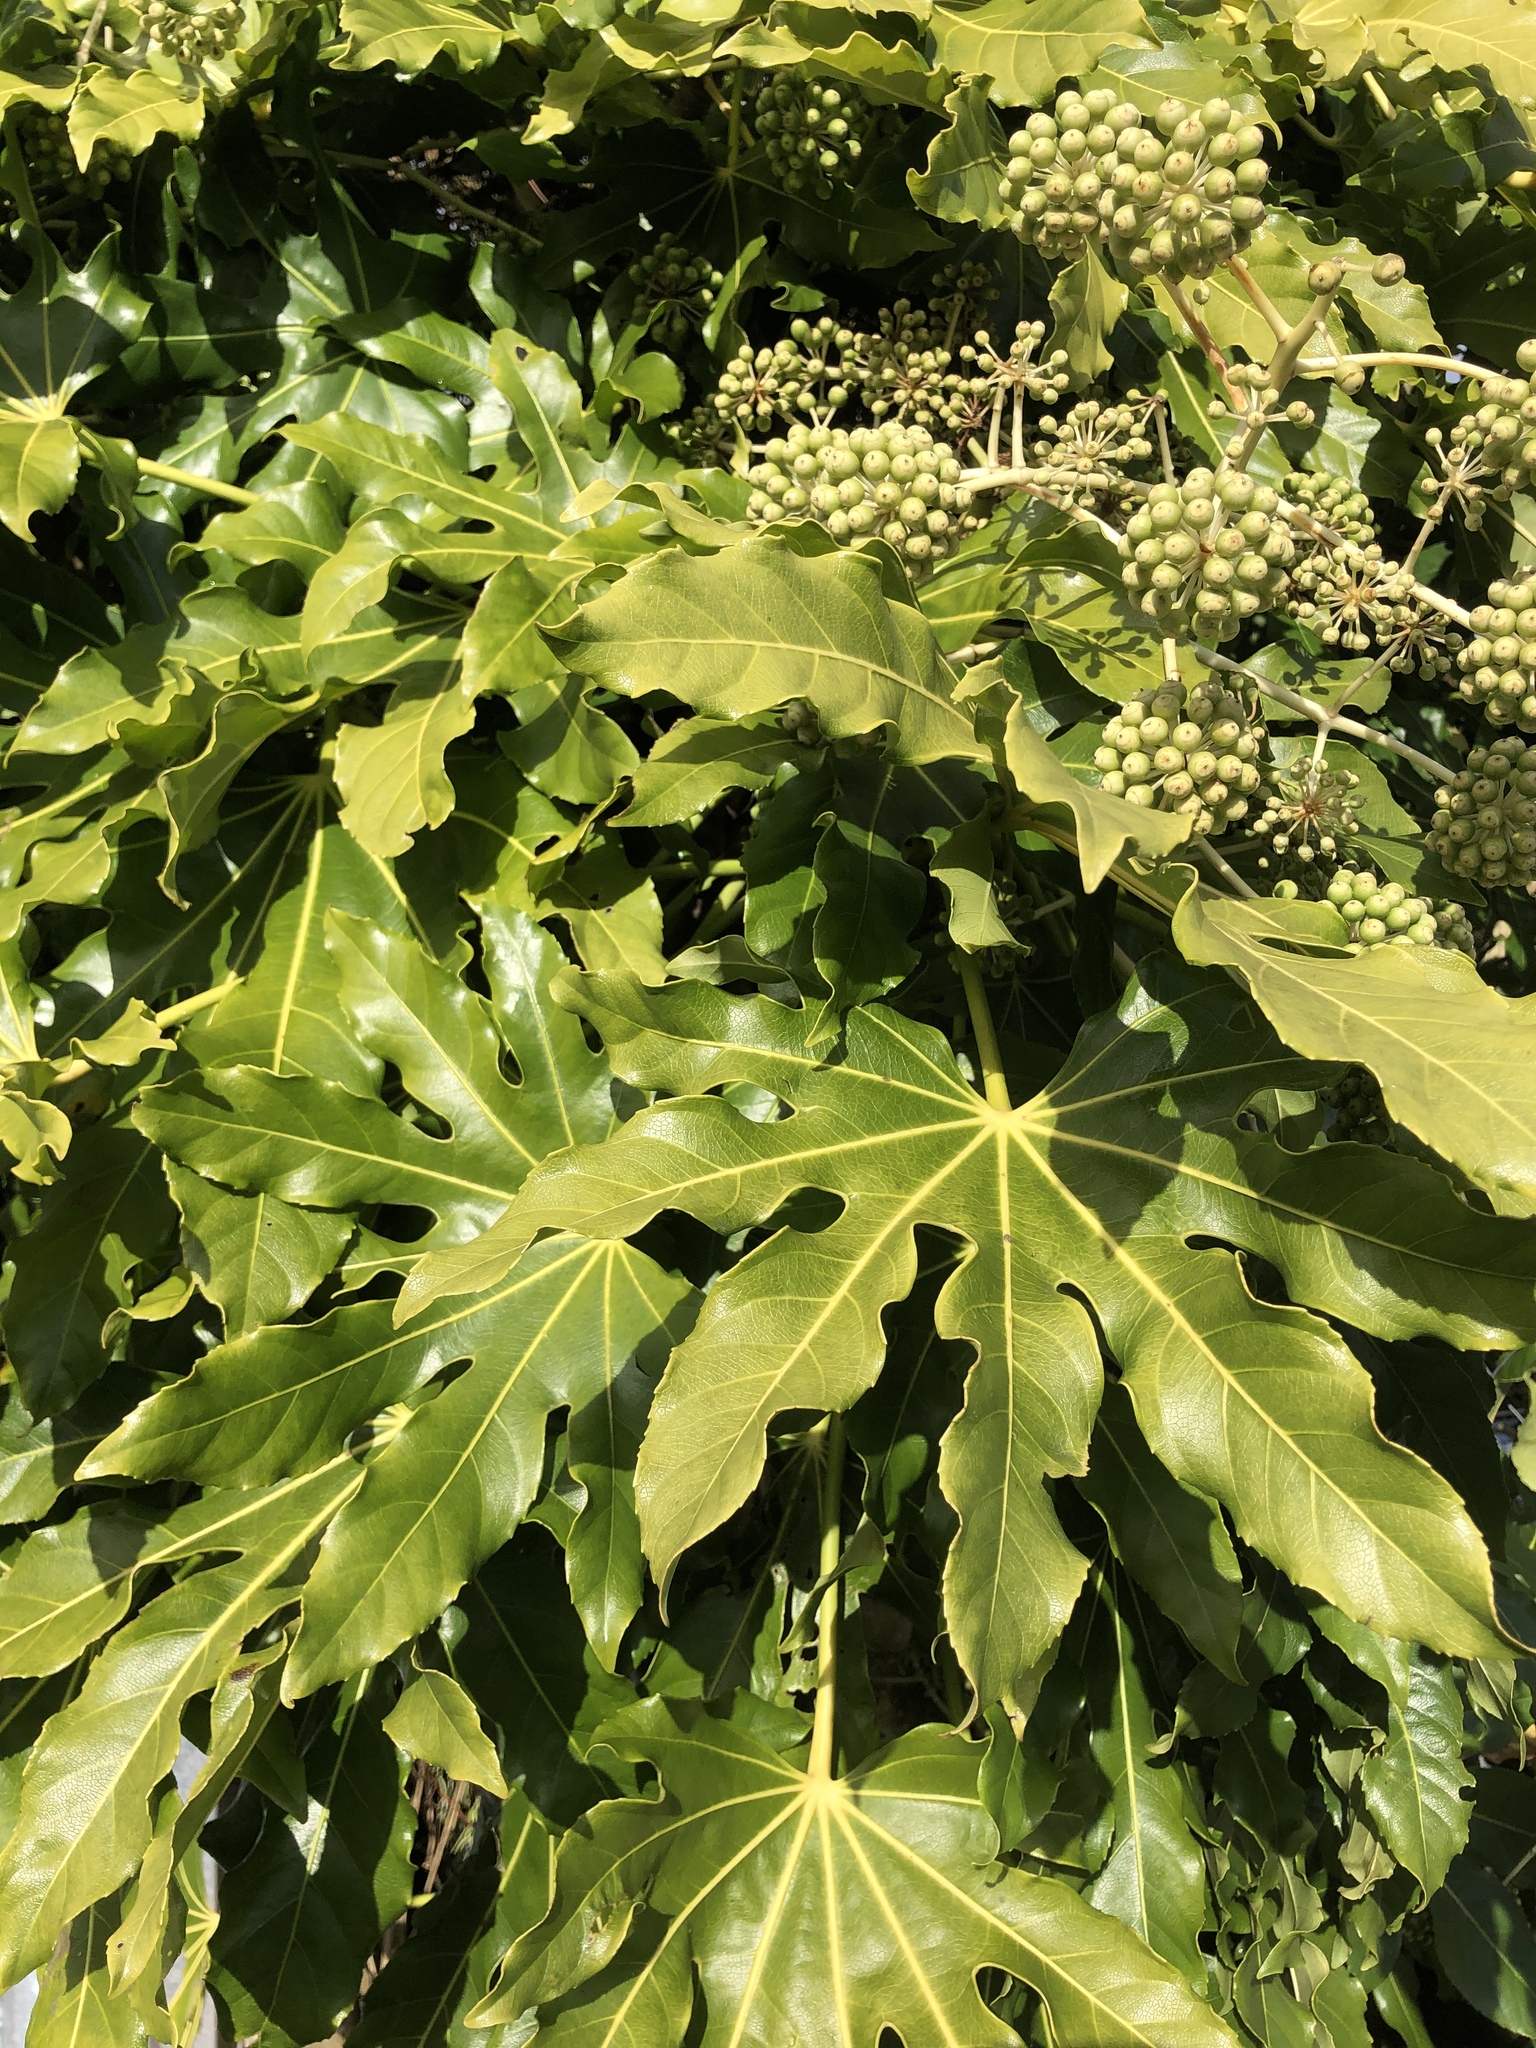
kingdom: Plantae
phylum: Tracheophyta
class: Magnoliopsida
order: Apiales
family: Araliaceae
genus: Fatsia
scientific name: Fatsia japonica
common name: Fatsia
